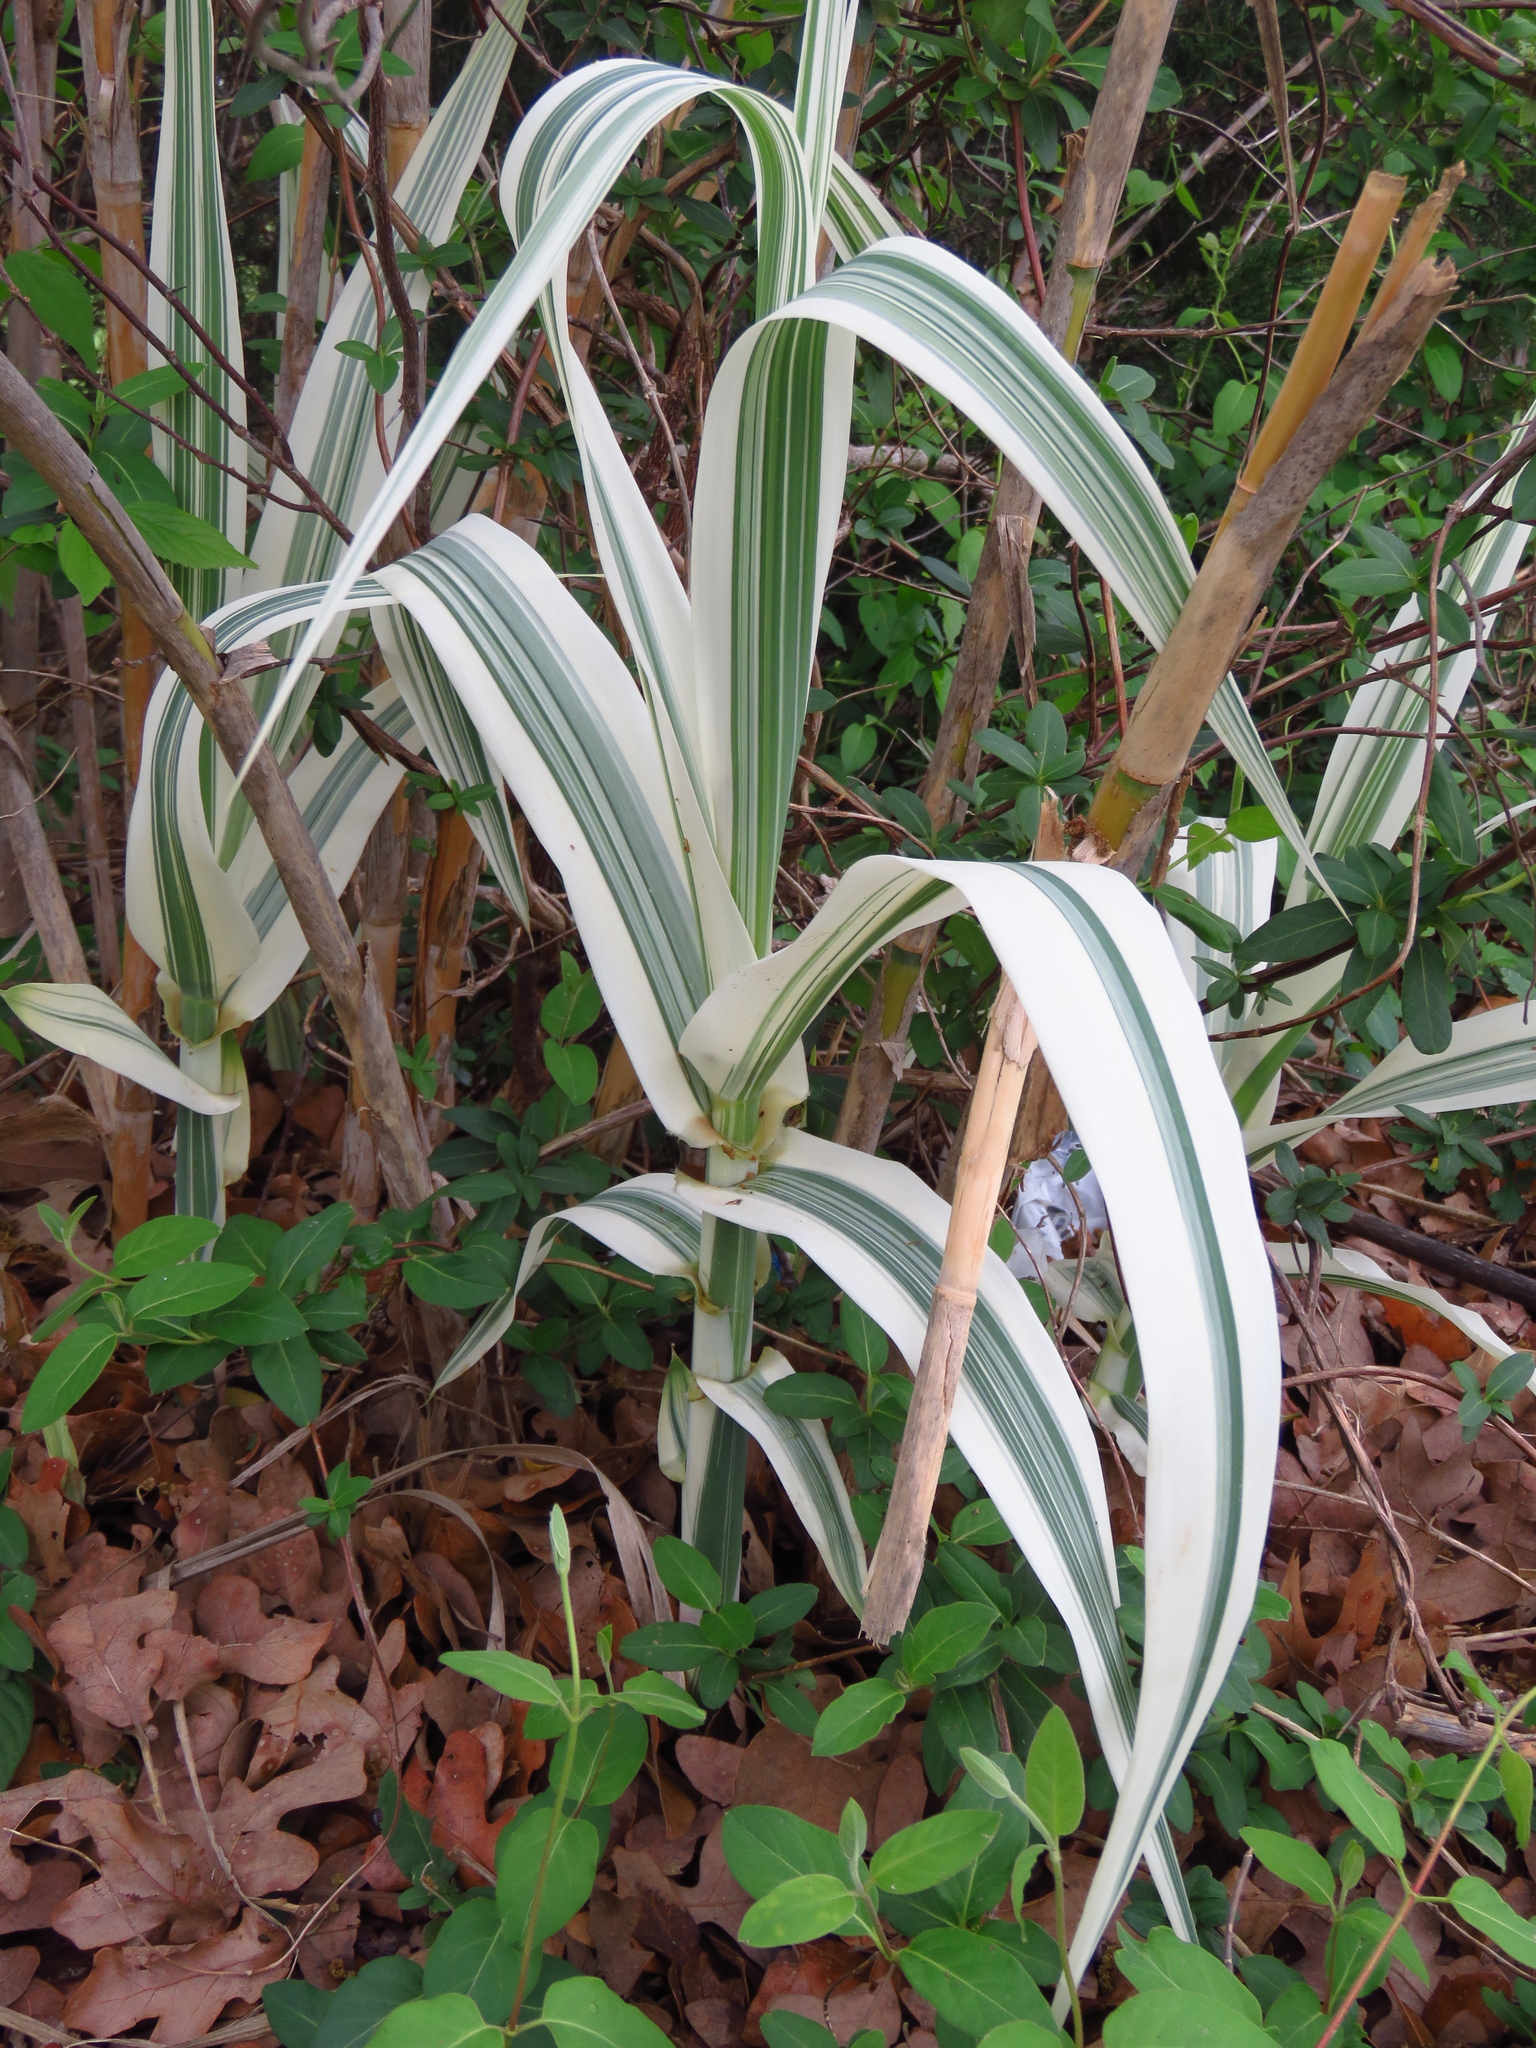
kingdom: Plantae
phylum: Tracheophyta
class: Liliopsida
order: Poales
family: Poaceae
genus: Arundo
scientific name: Arundo donax
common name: Giant reed
